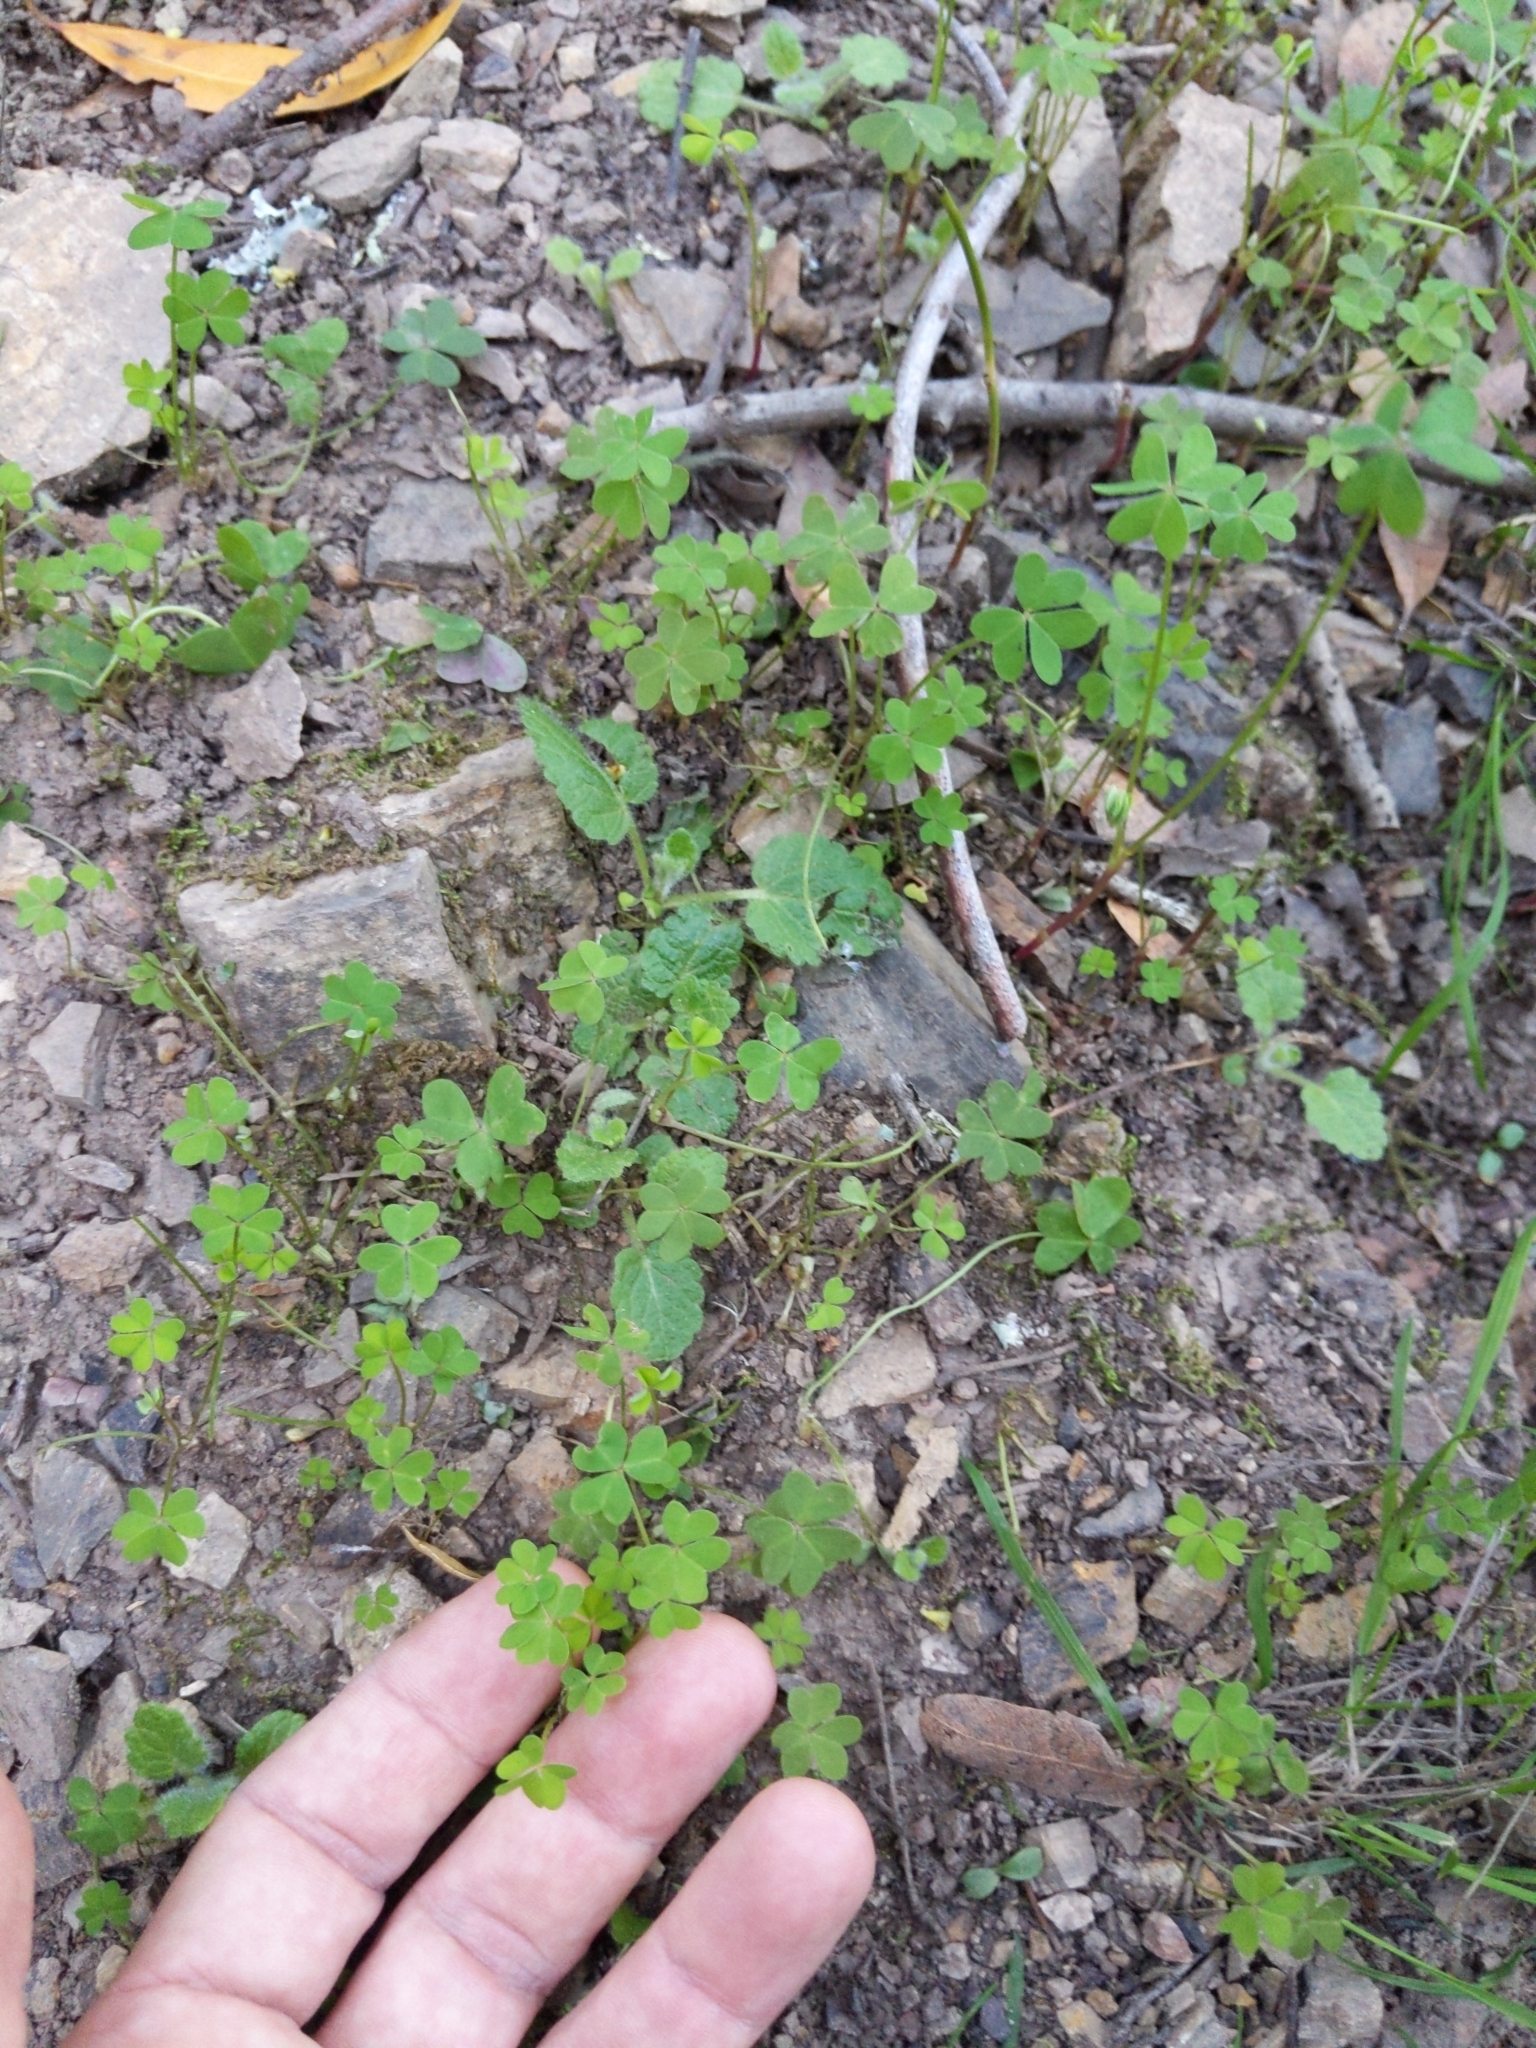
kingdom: Plantae
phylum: Tracheophyta
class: Magnoliopsida
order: Oxalidales
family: Oxalidaceae
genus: Oxalis
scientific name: Oxalis pes-caprae
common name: Bermuda-buttercup
